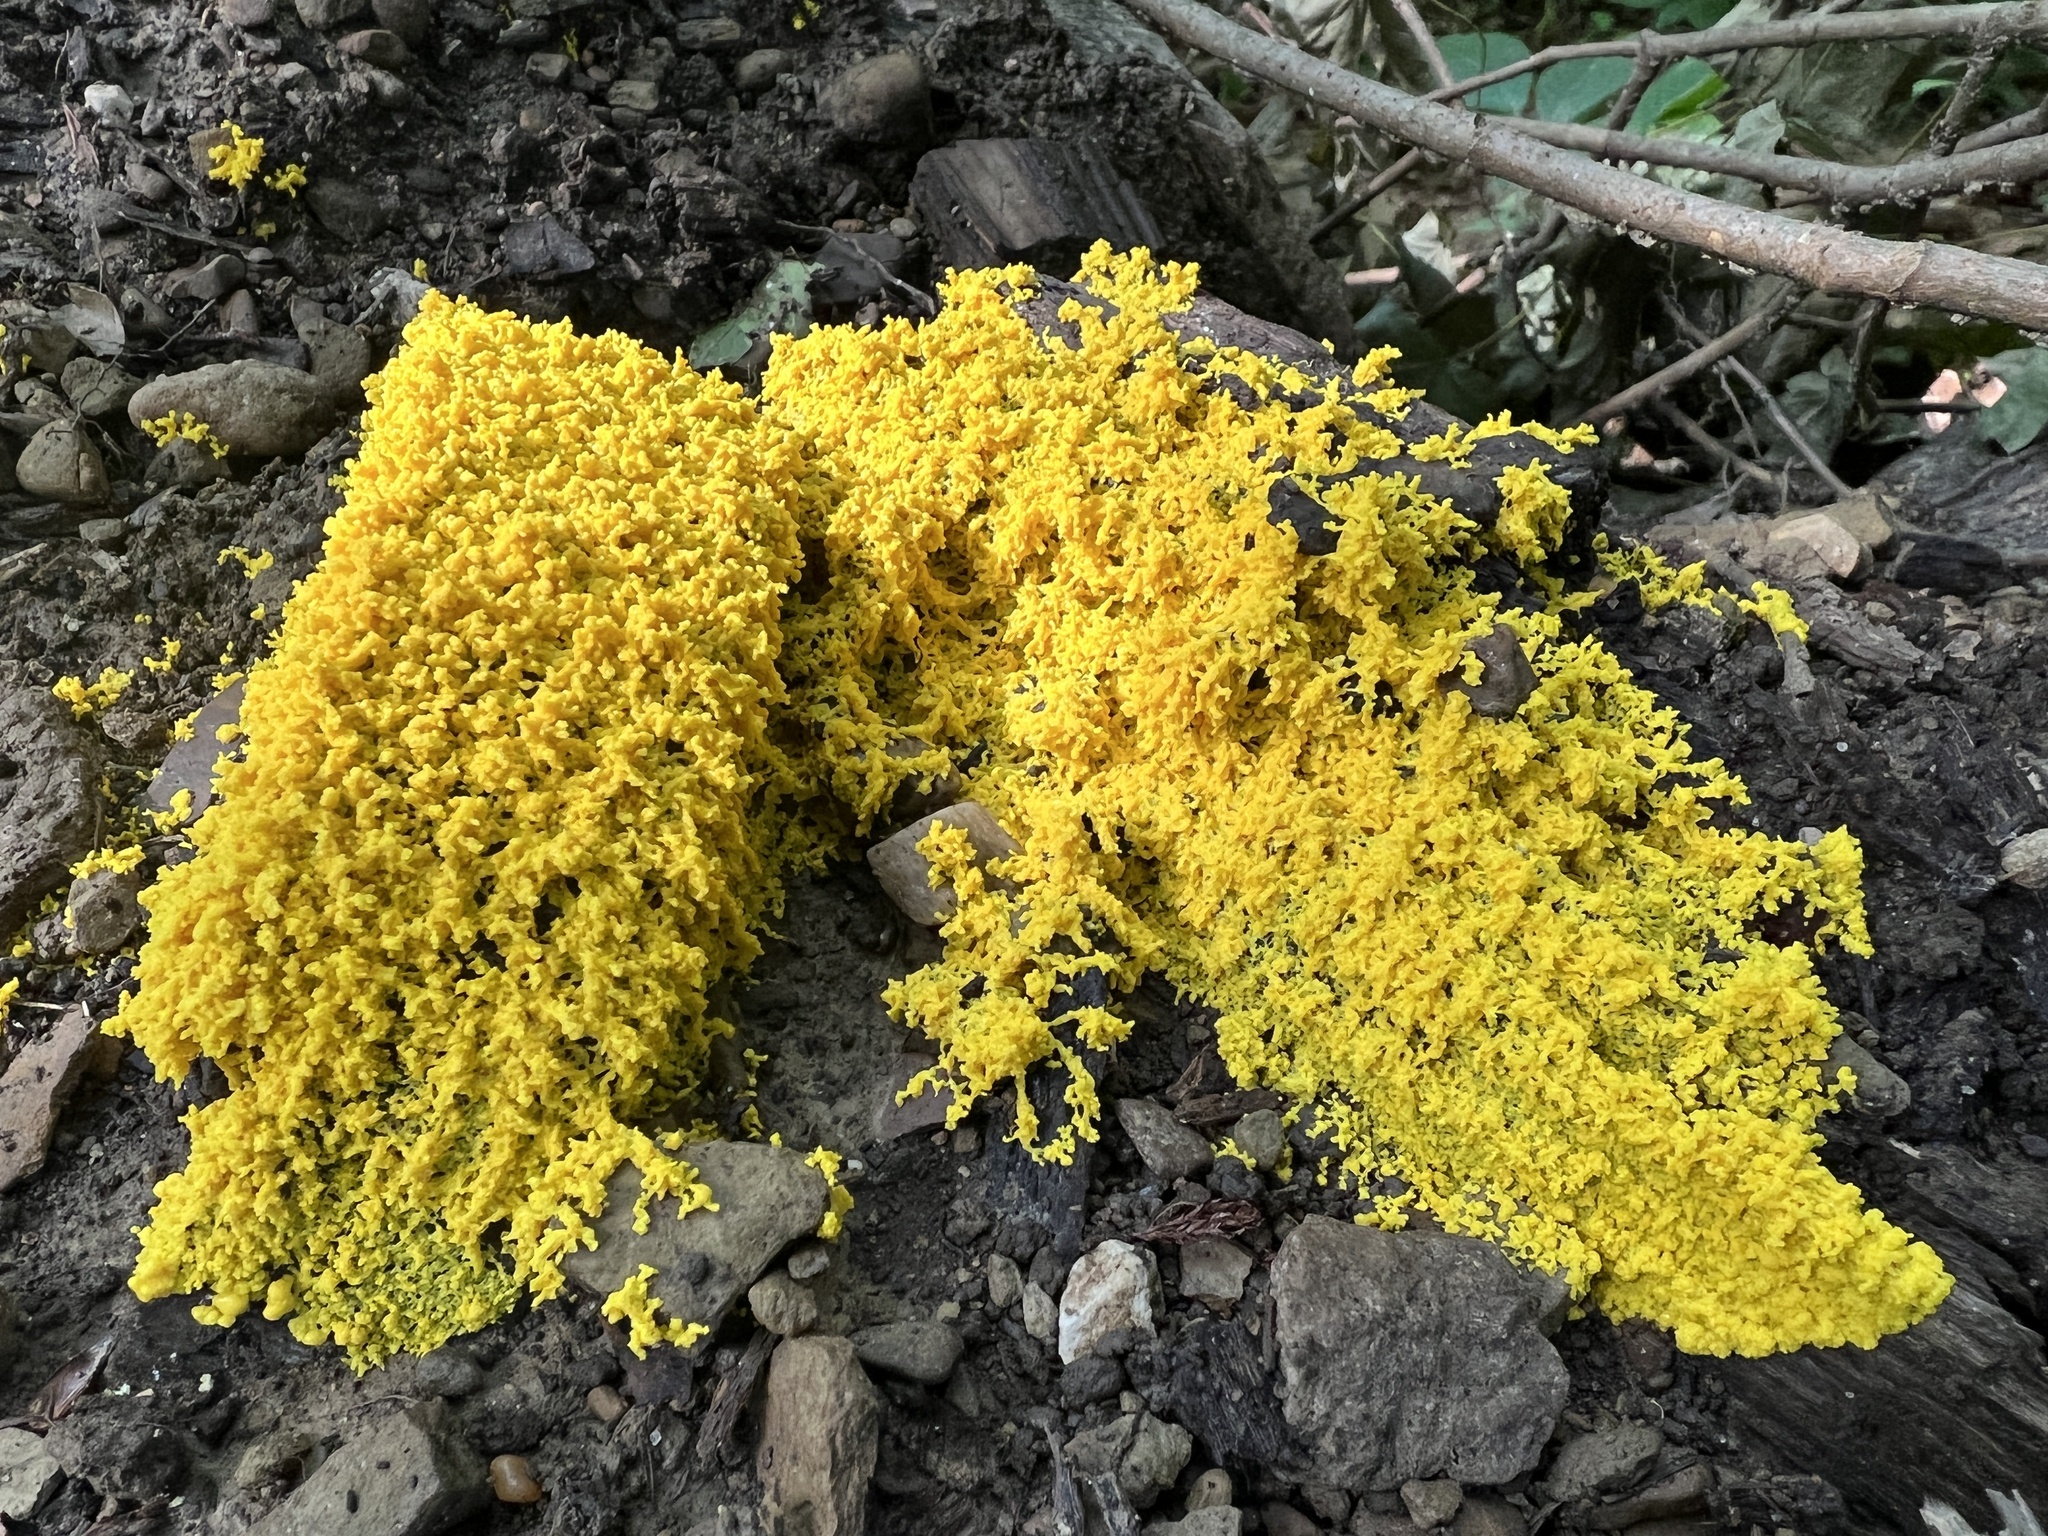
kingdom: Protozoa
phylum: Mycetozoa
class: Myxomycetes
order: Physarales
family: Physaraceae
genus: Fuligo
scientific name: Fuligo septica
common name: Dog vomit slime mold
